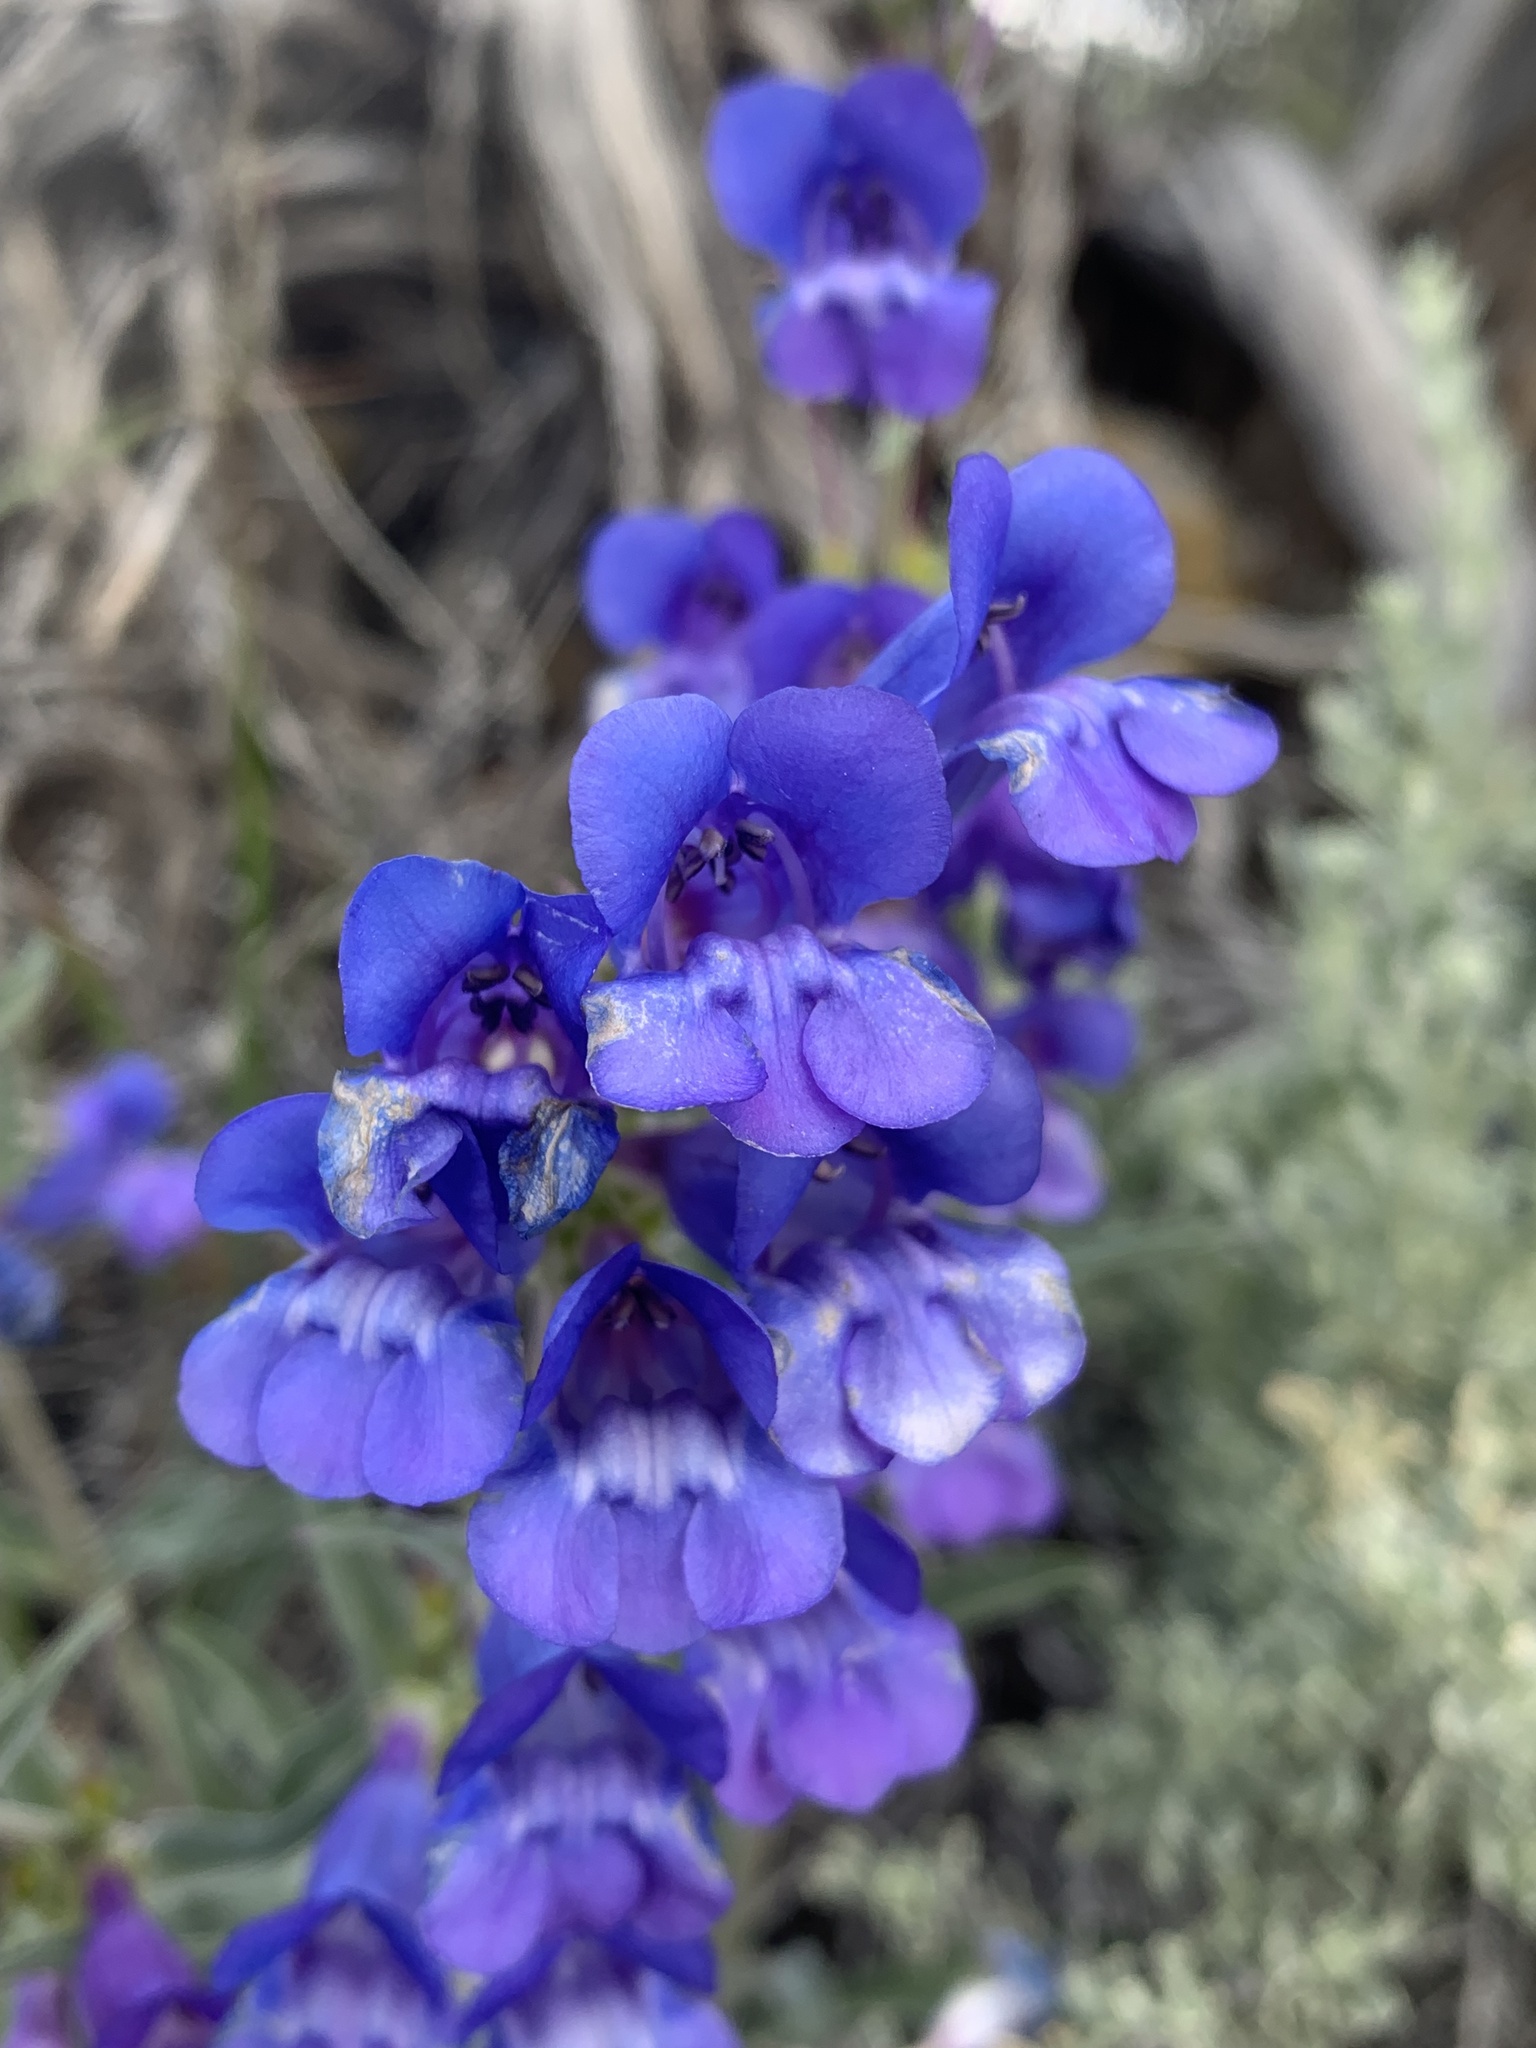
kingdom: Plantae
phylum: Tracheophyta
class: Magnoliopsida
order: Lamiales
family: Plantaginaceae
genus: Penstemon
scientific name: Penstemon speciosus
